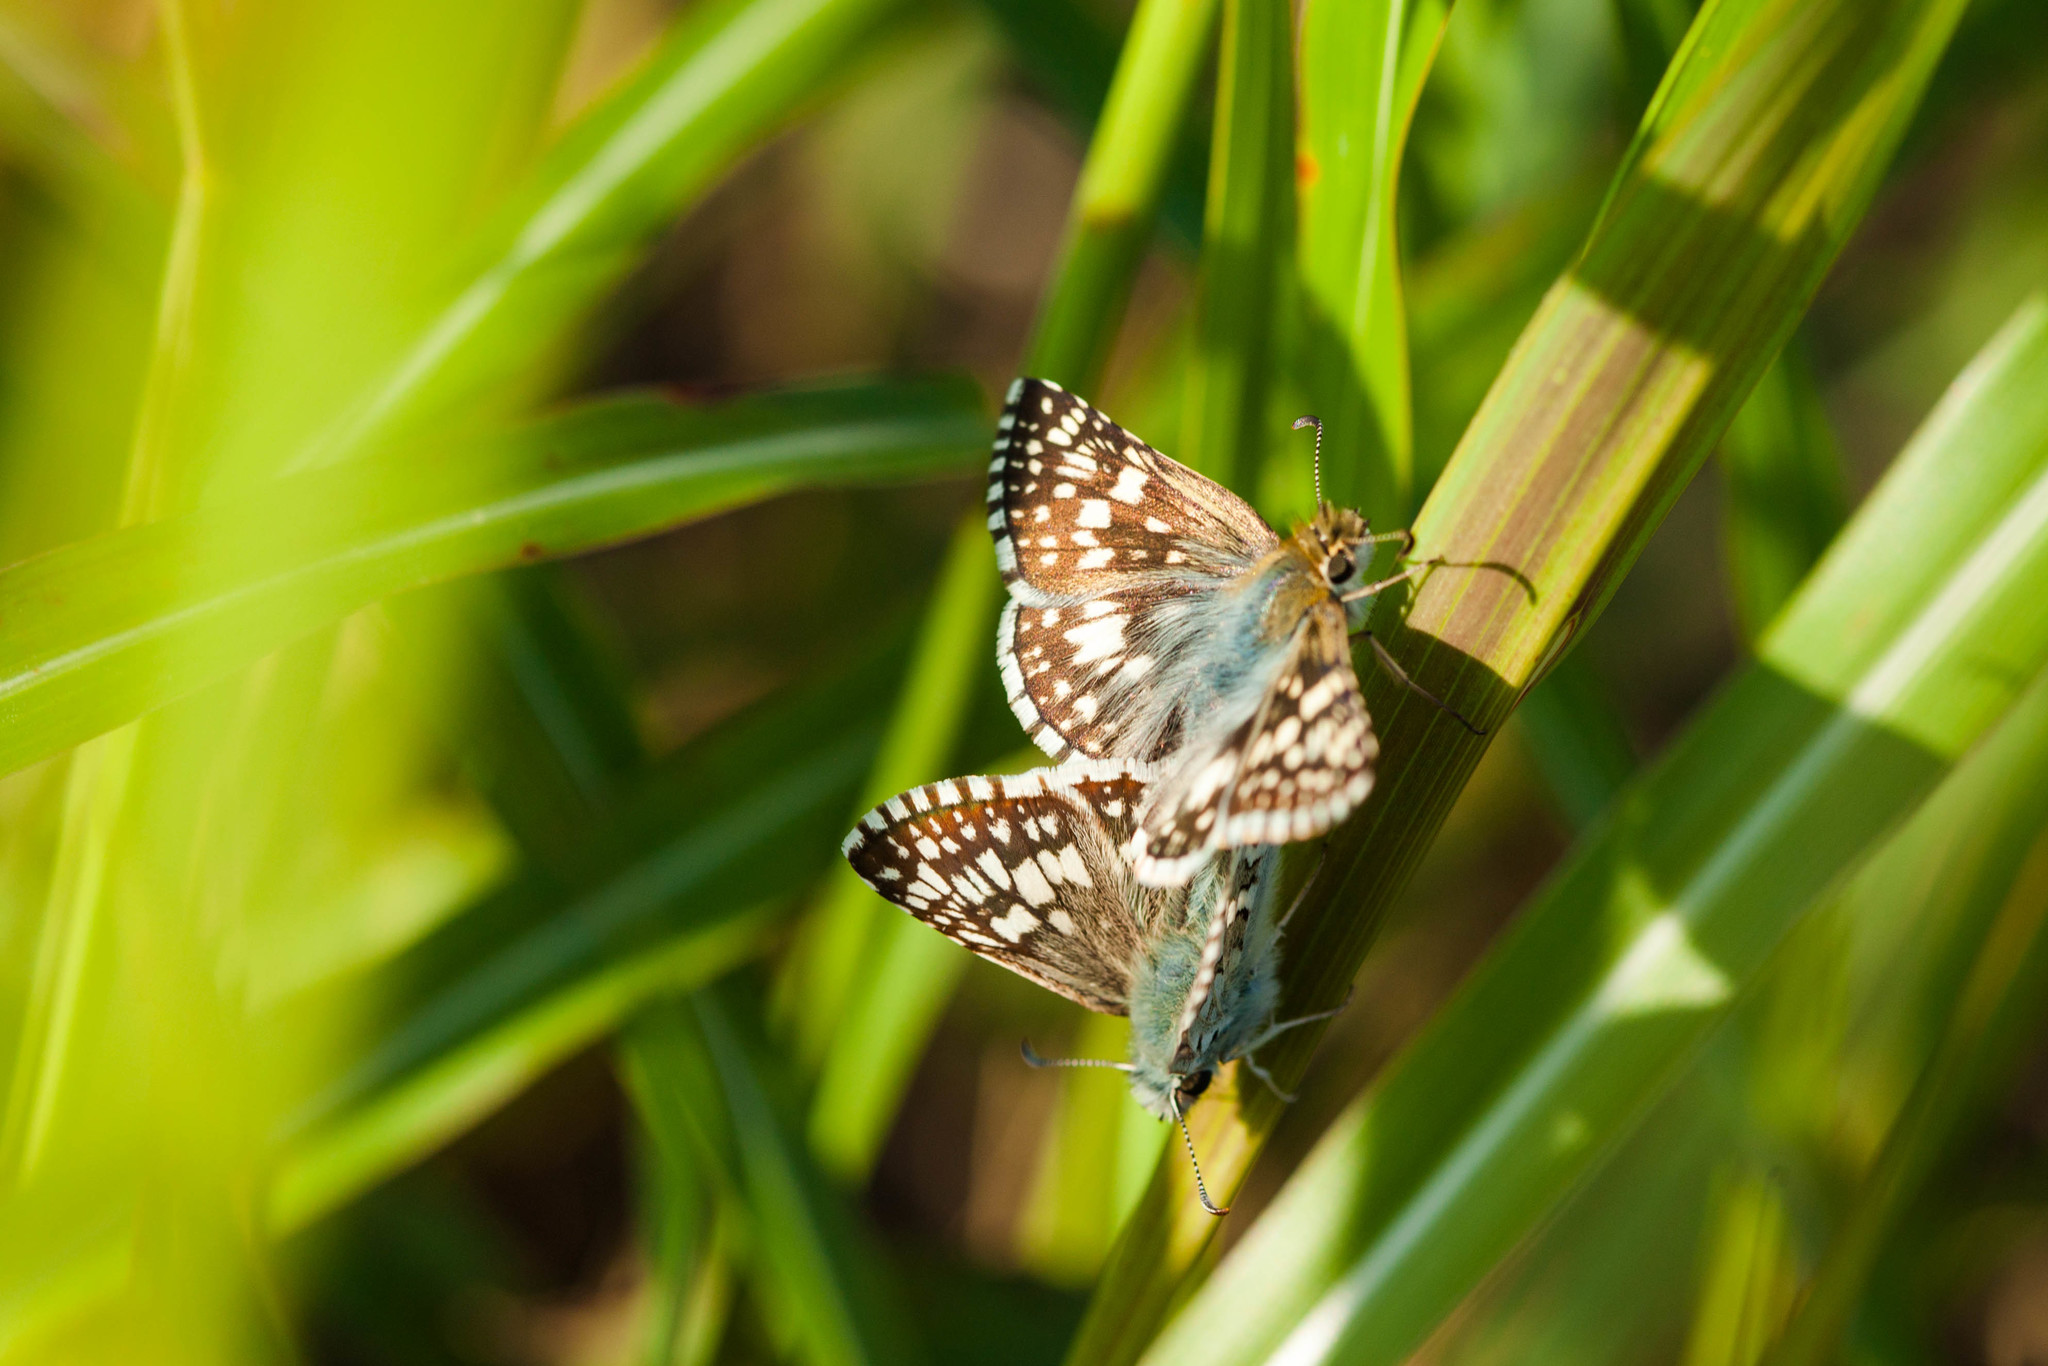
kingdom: Animalia
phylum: Arthropoda
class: Insecta
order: Lepidoptera
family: Hesperiidae
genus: Burnsius
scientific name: Burnsius communis
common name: Common checkered-skipper
